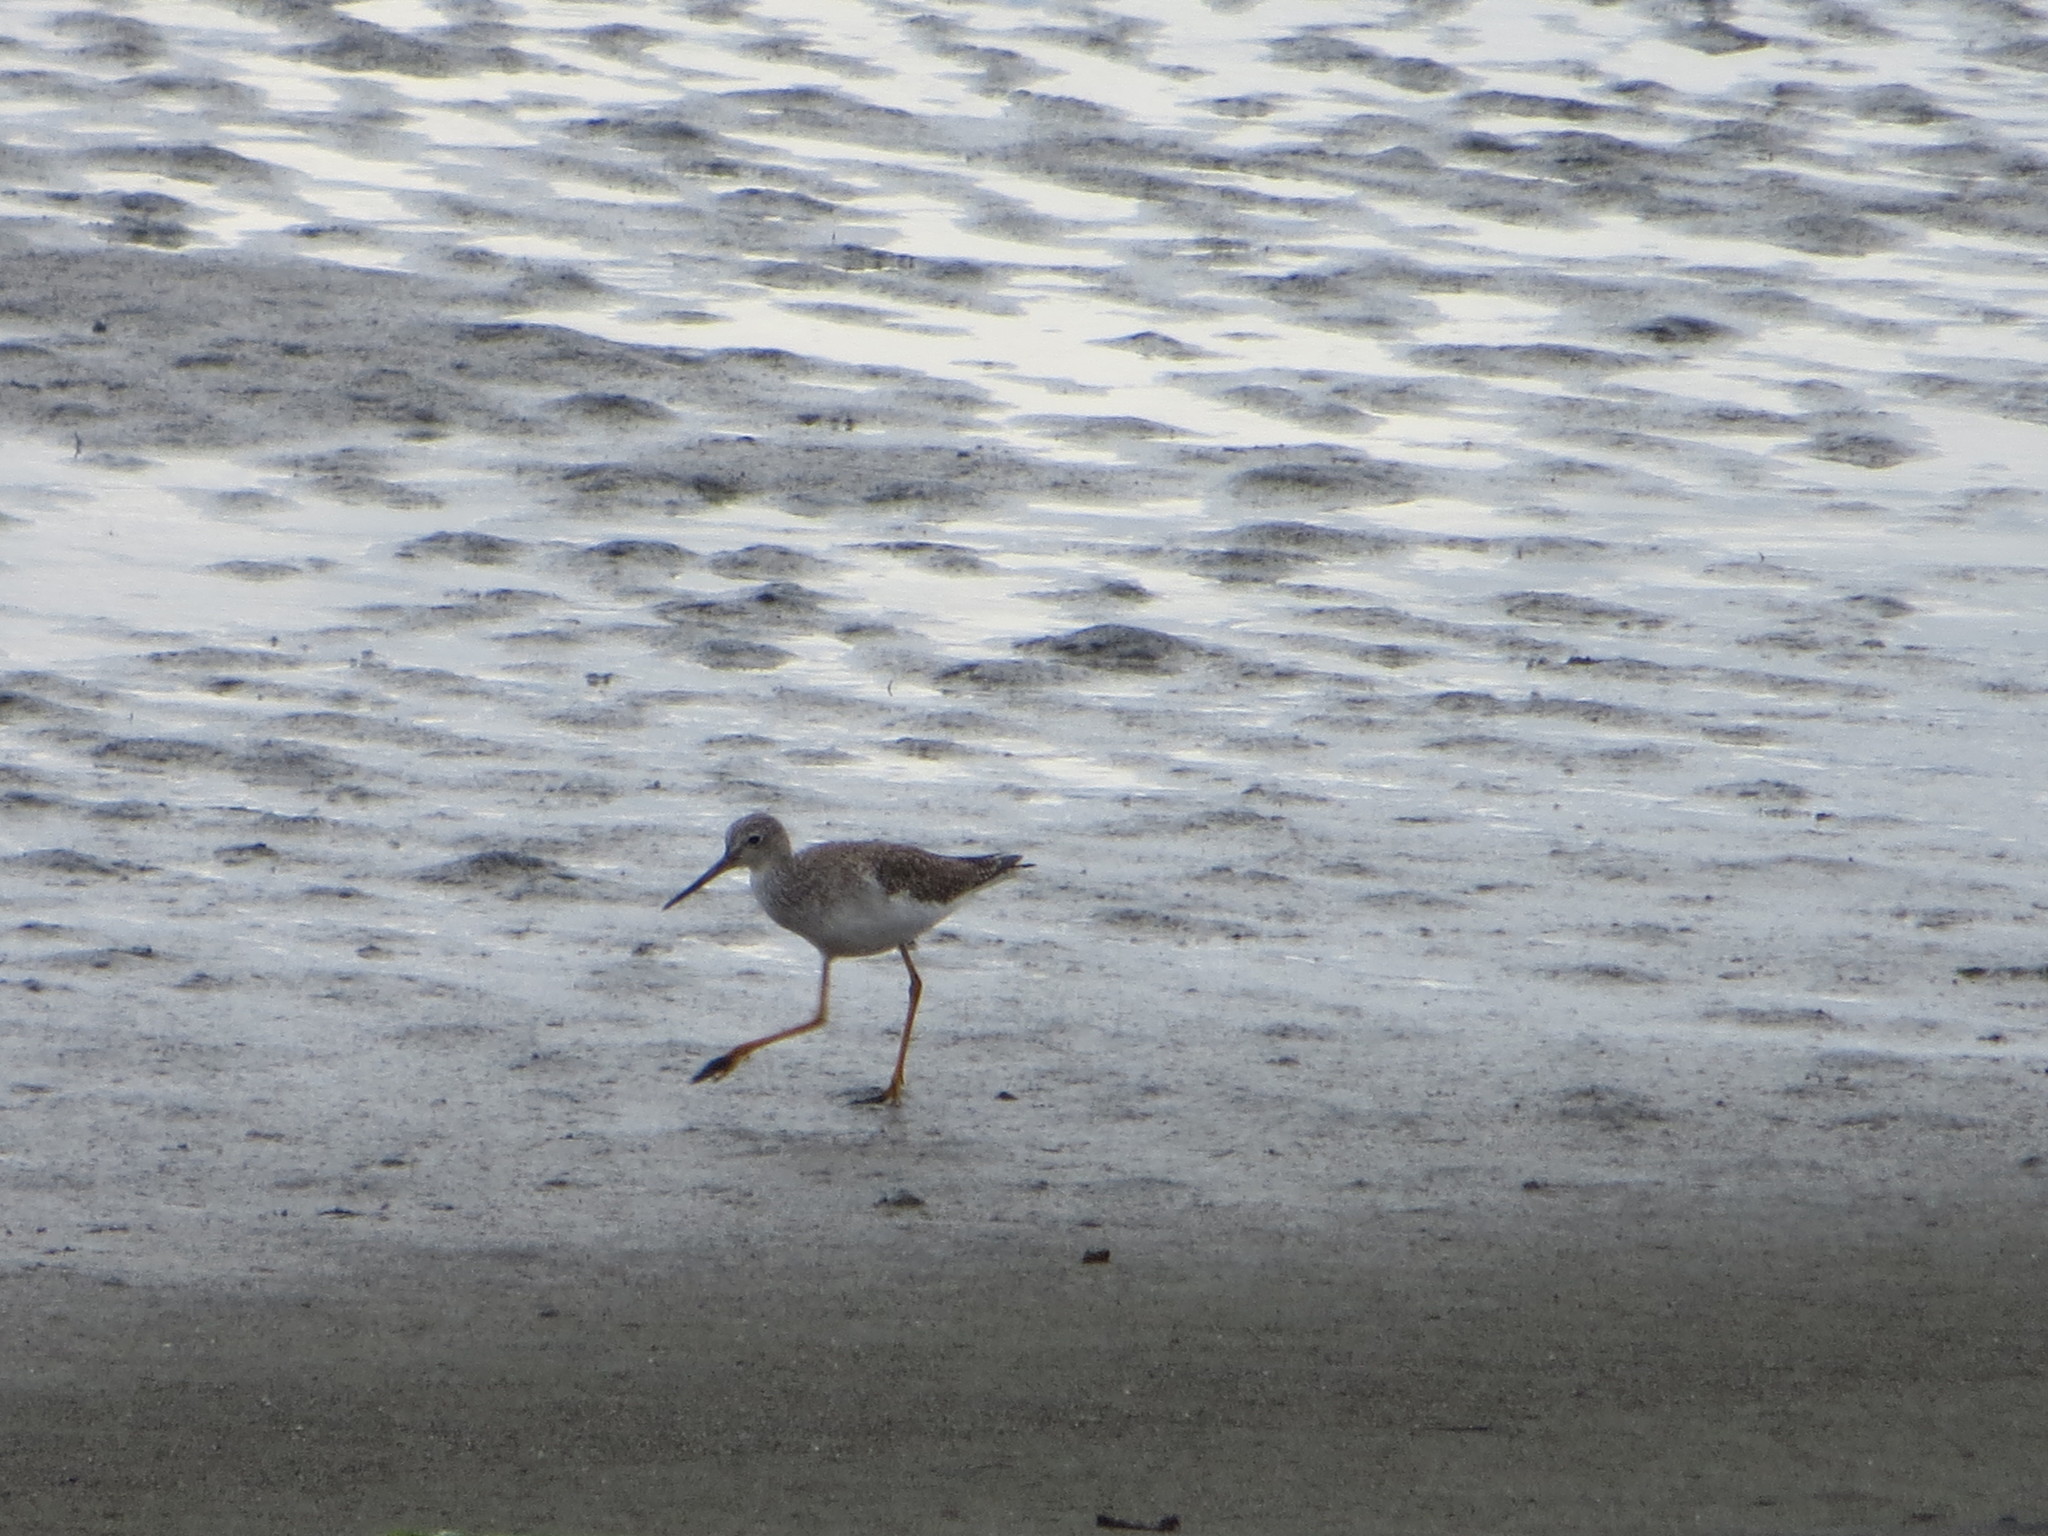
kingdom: Animalia
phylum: Chordata
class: Aves
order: Charadriiformes
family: Scolopacidae
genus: Tringa
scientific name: Tringa melanoleuca
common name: Greater yellowlegs
